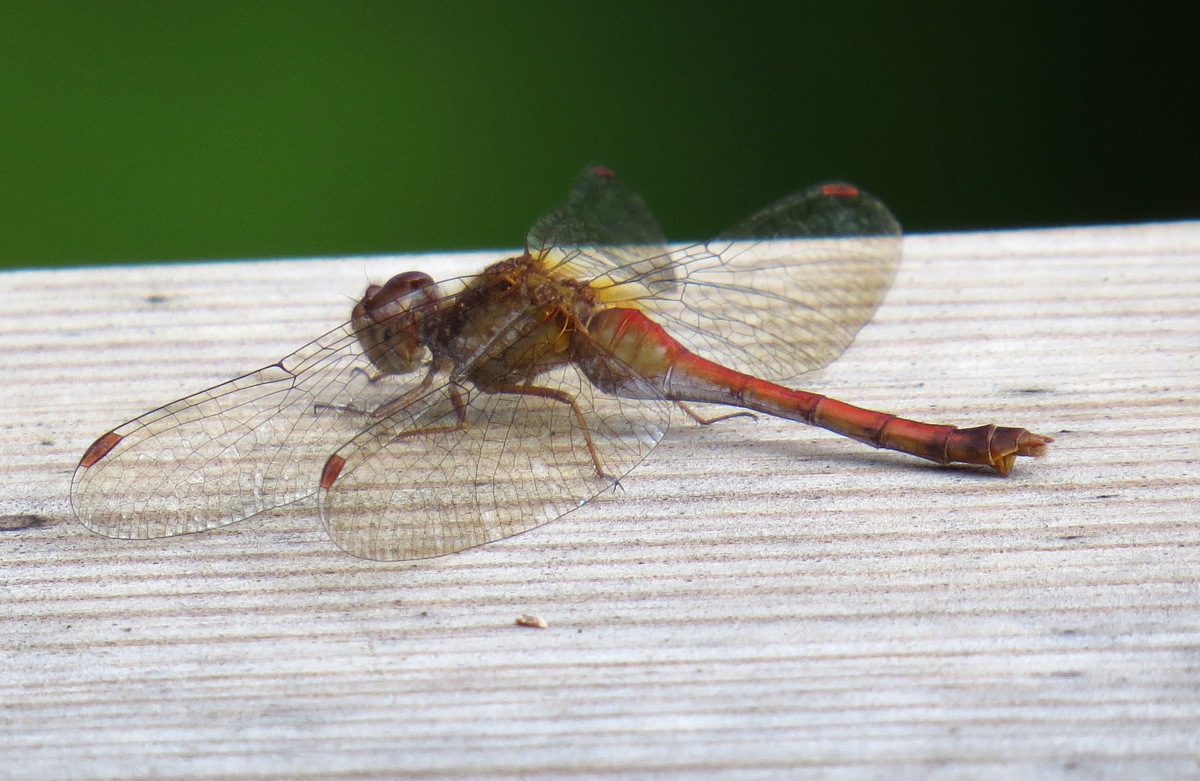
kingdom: Animalia
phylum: Arthropoda
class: Insecta
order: Odonata
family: Libellulidae
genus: Sympetrum
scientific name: Sympetrum vicinum
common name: Autumn meadowhawk
